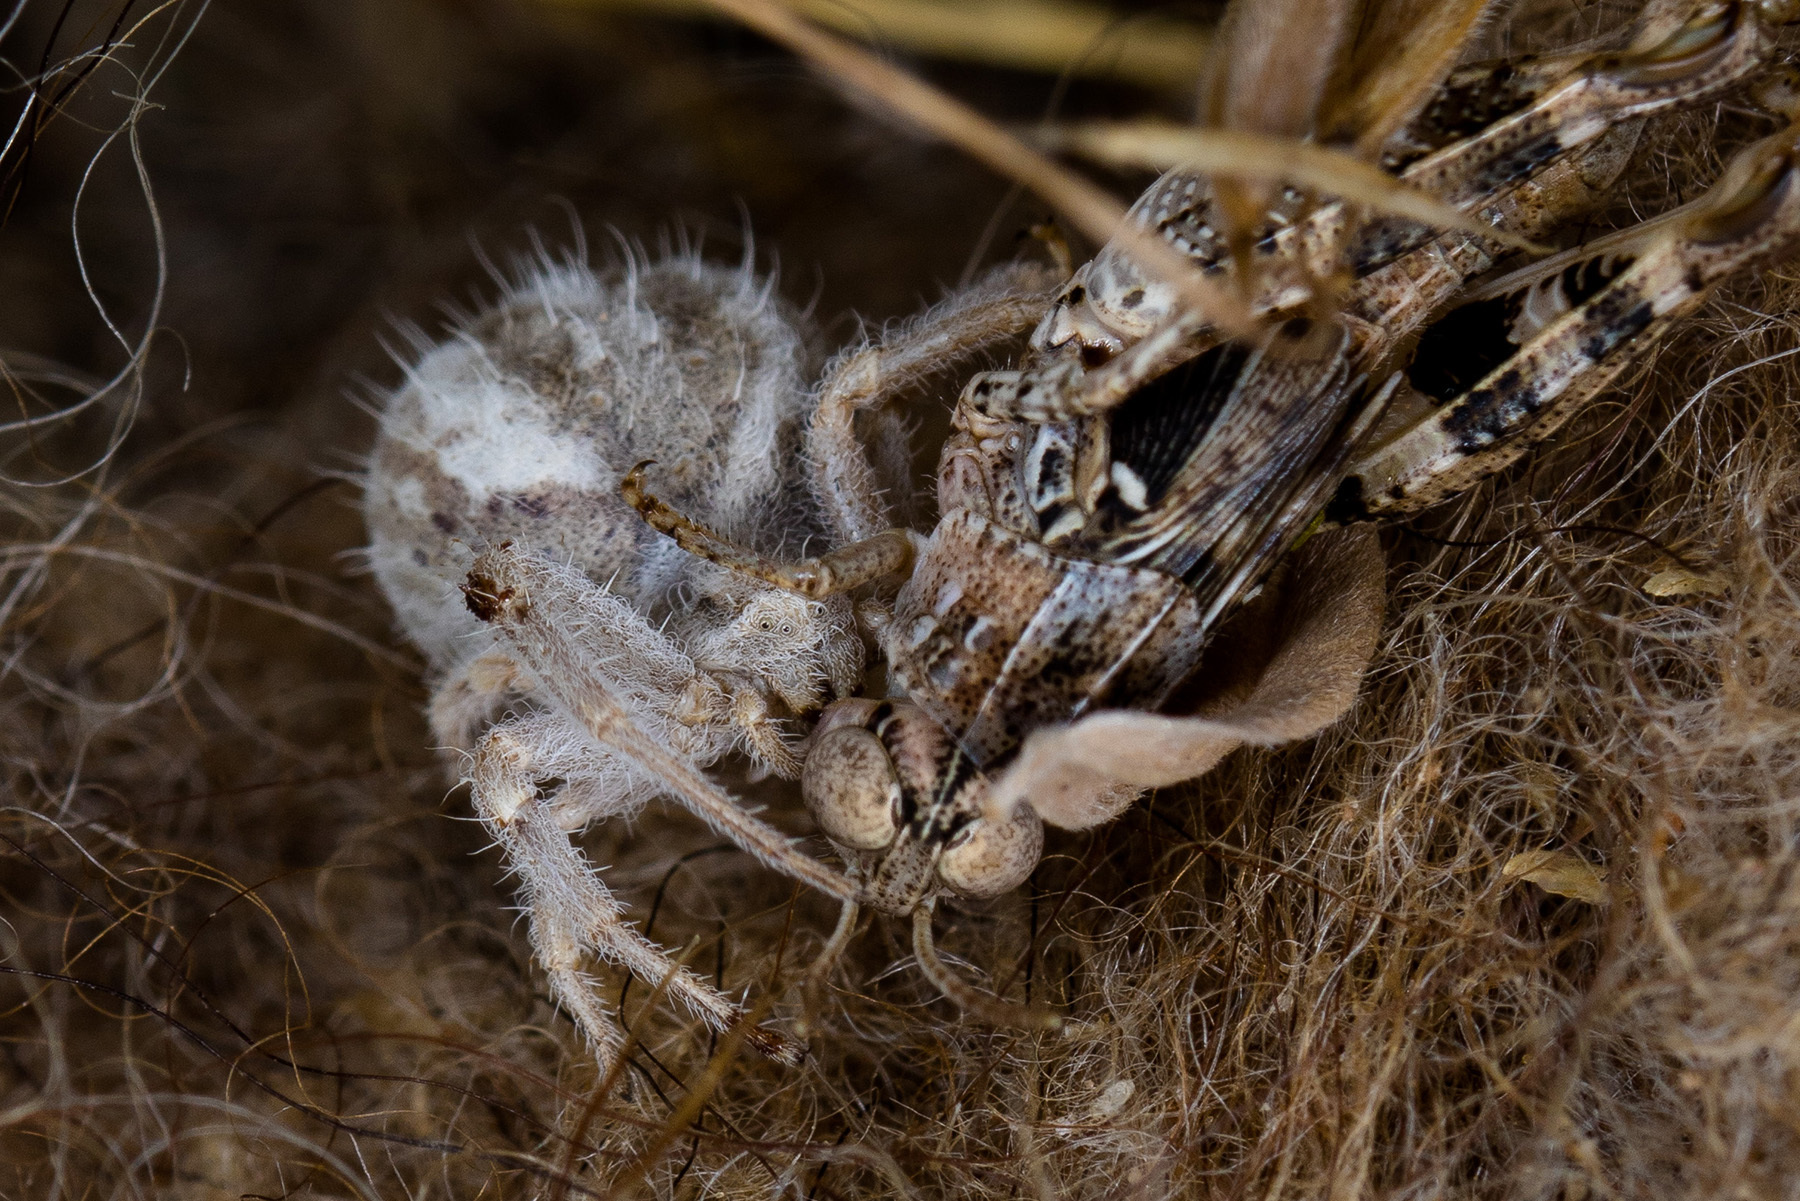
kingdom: Animalia
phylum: Arthropoda
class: Arachnida
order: Araneae
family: Thomisidae
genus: Heriaeus
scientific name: Heriaeus horridus
